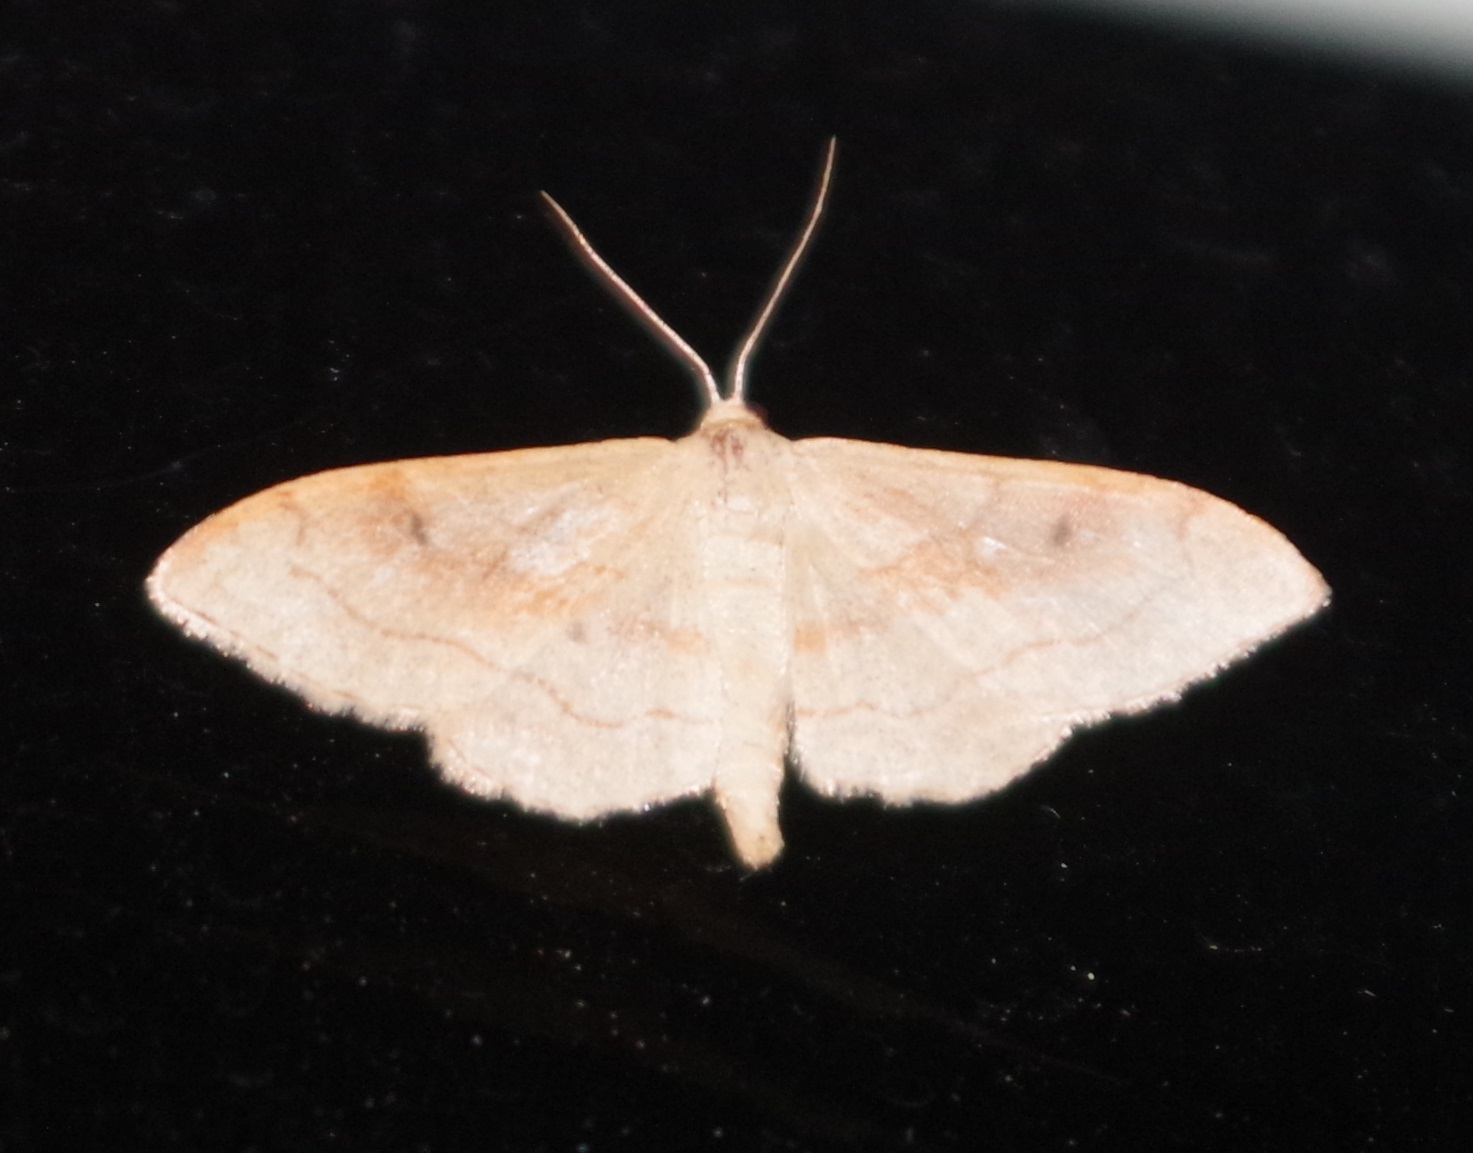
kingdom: Animalia
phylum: Arthropoda
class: Insecta
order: Lepidoptera
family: Geometridae
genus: Idaea
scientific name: Idaea bilinearia
